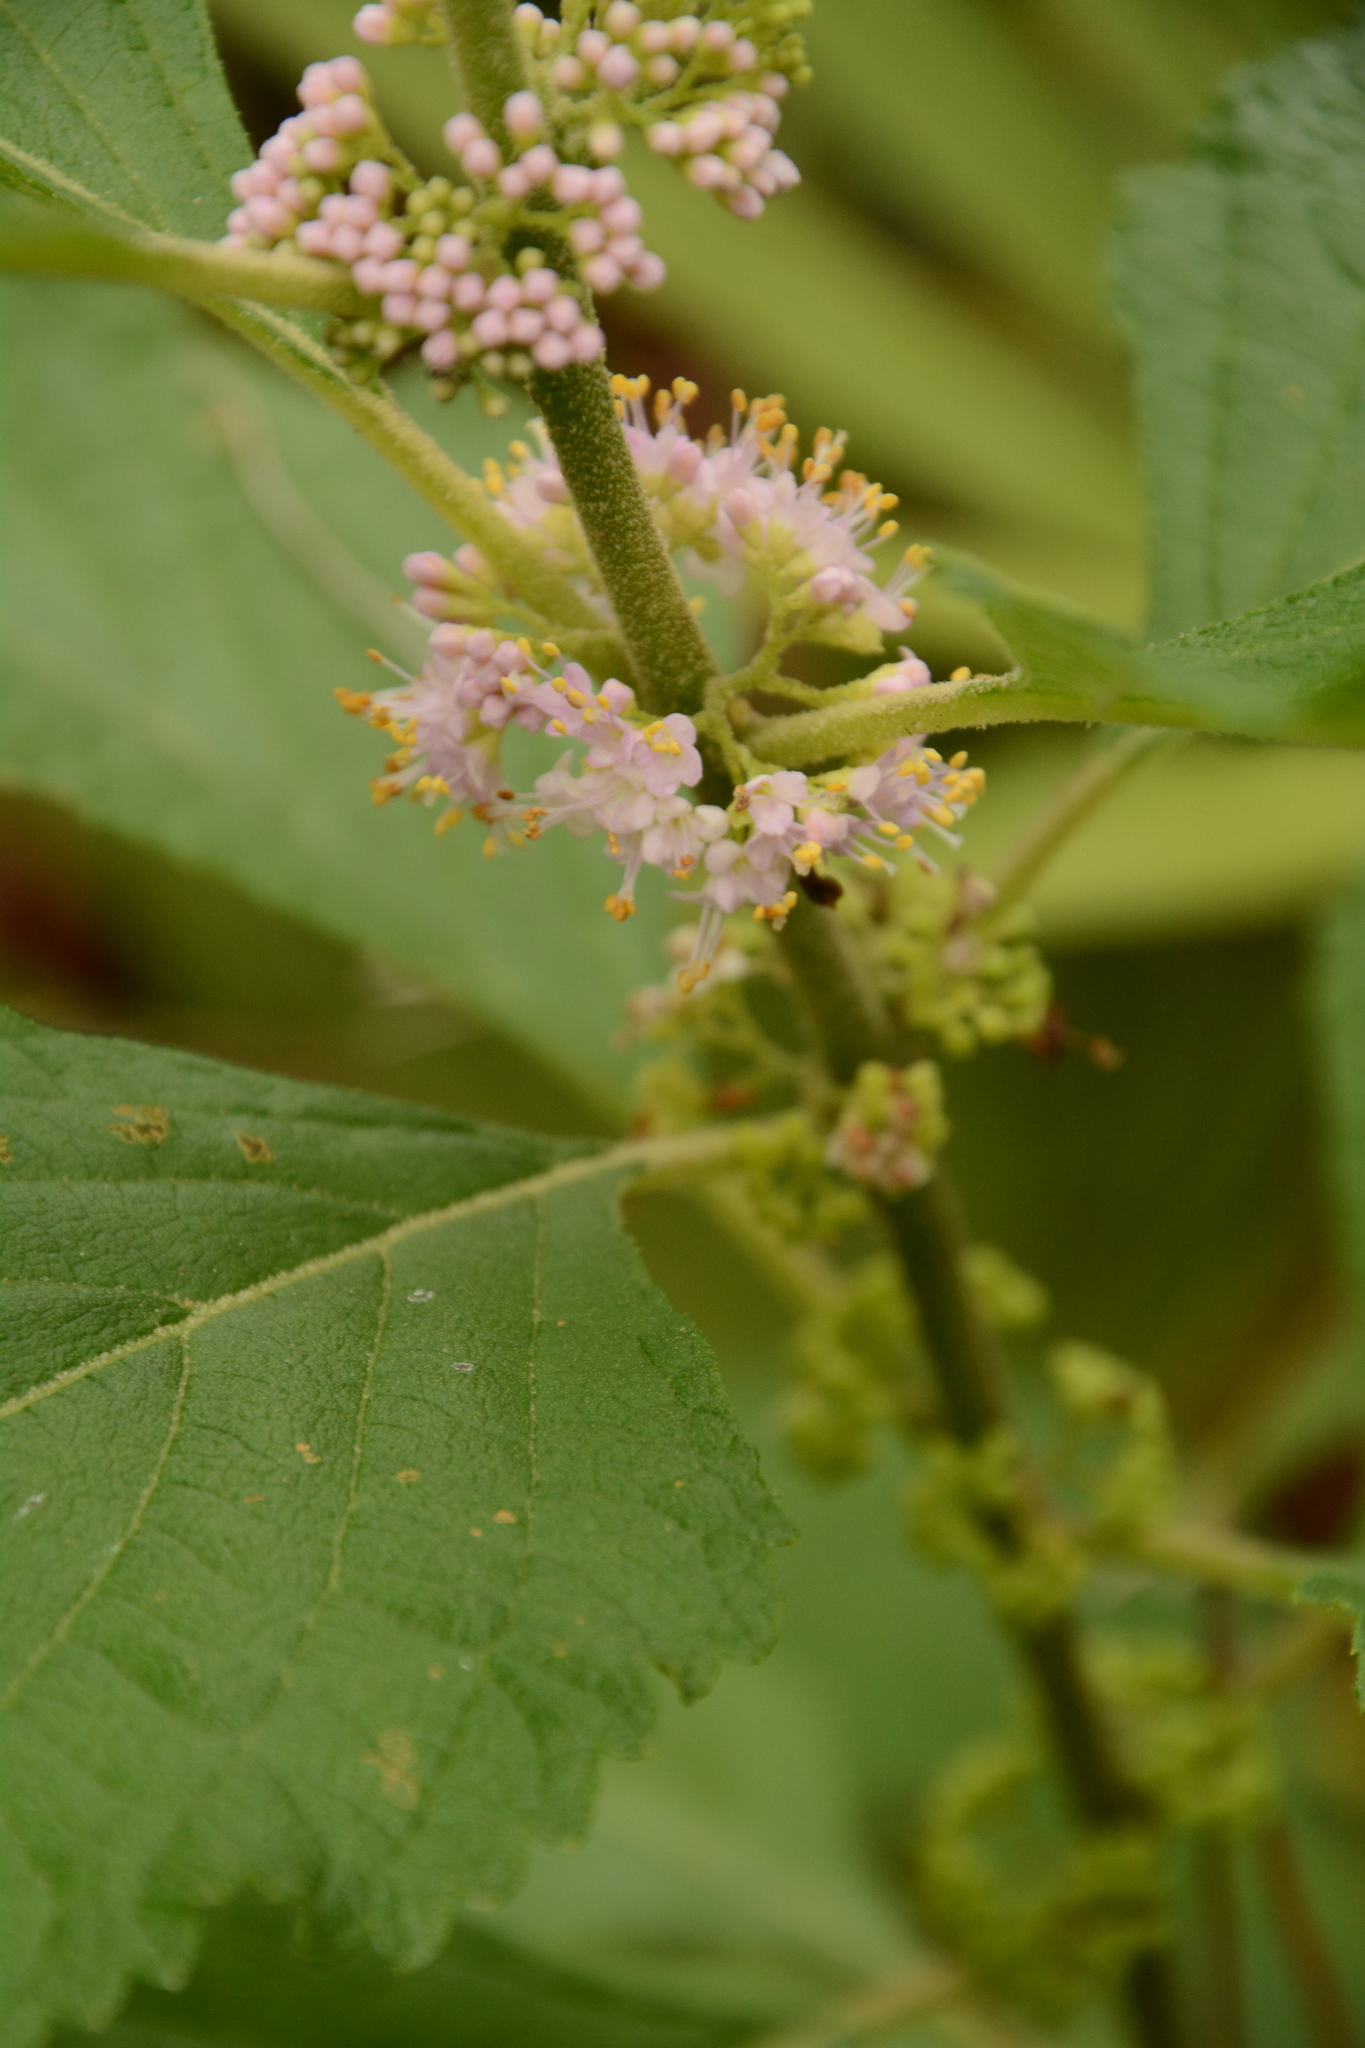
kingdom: Plantae
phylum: Tracheophyta
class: Magnoliopsida
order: Lamiales
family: Lamiaceae
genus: Callicarpa
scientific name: Callicarpa americana
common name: American beautyberry
